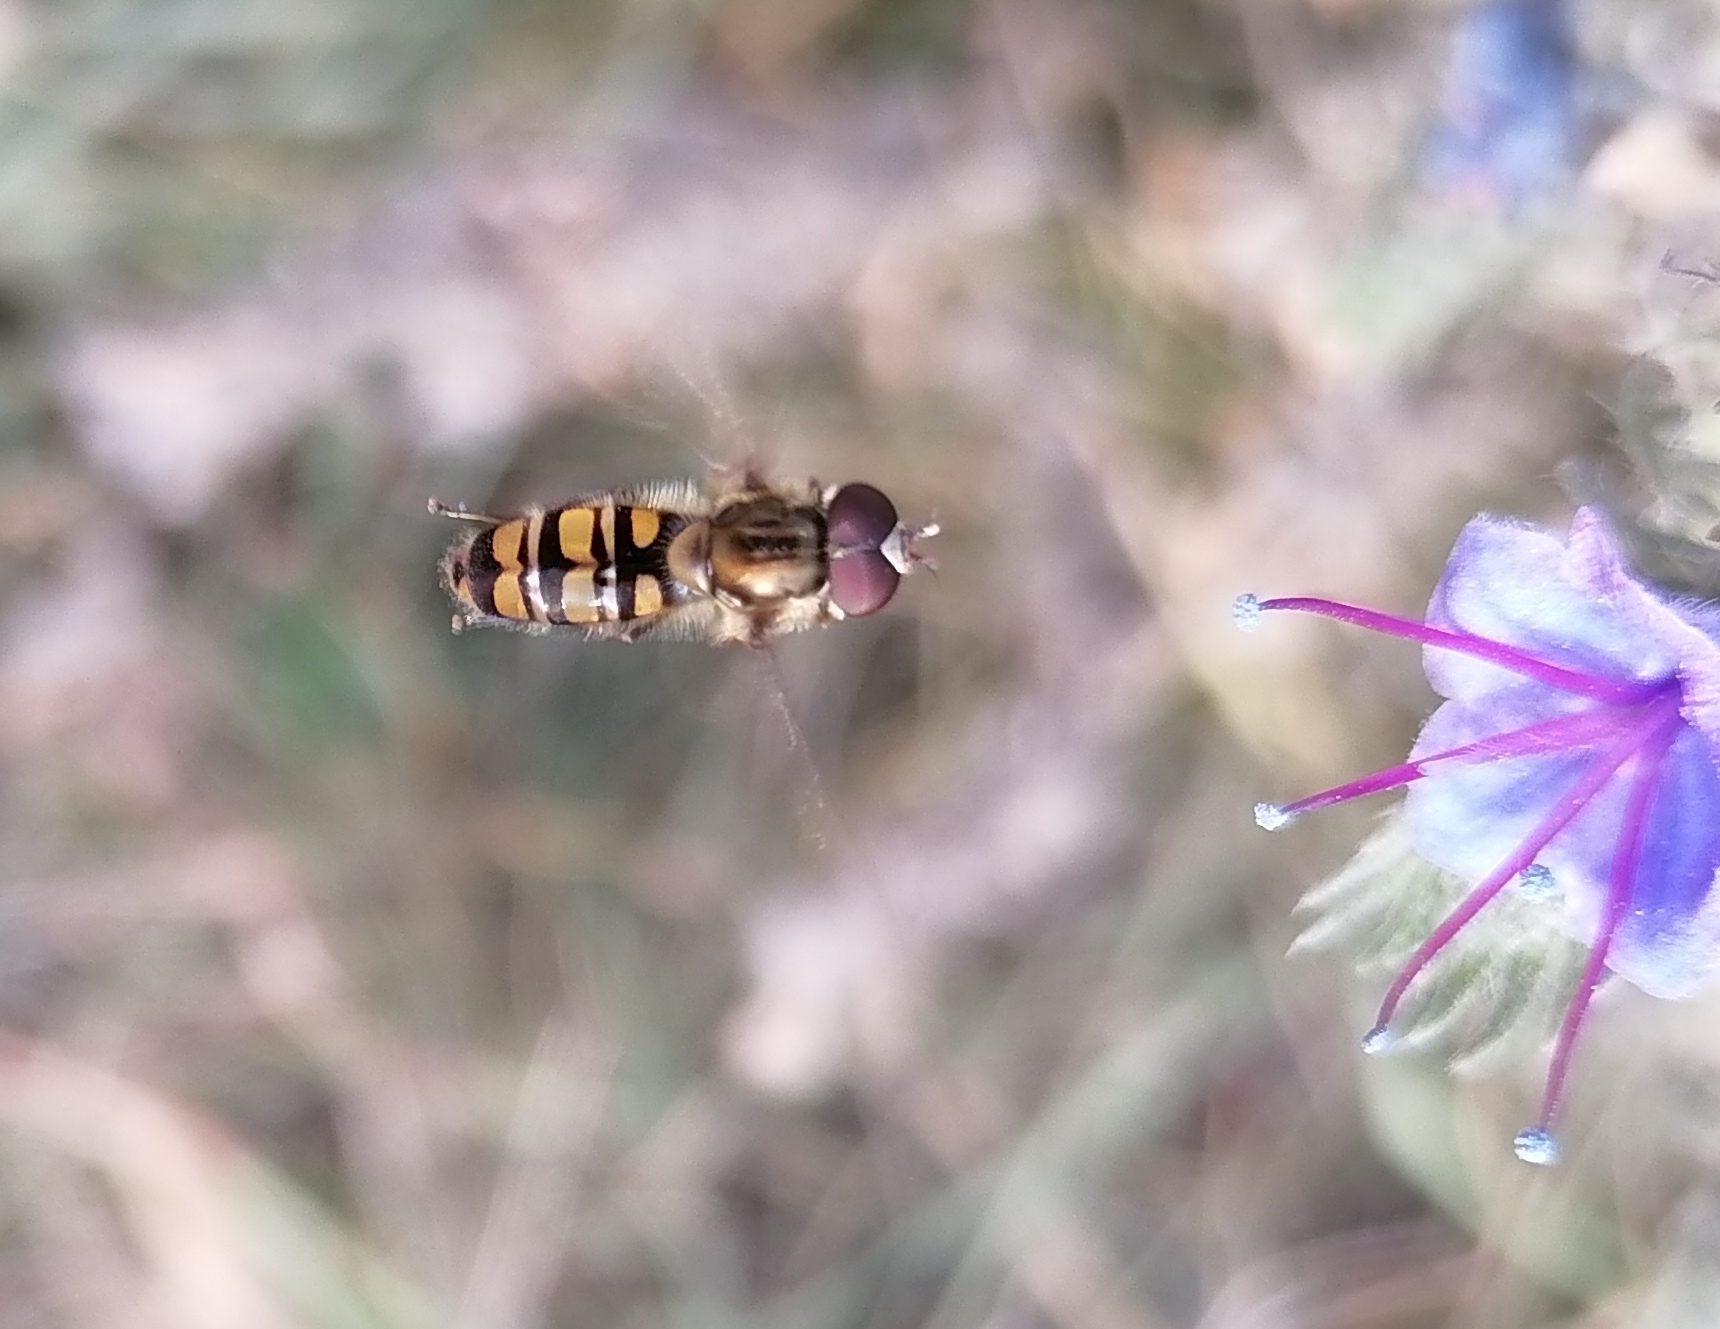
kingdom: Animalia
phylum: Arthropoda
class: Insecta
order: Diptera
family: Syrphidae
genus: Episyrphus
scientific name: Episyrphus balteatus
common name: Marmalade hoverfly
